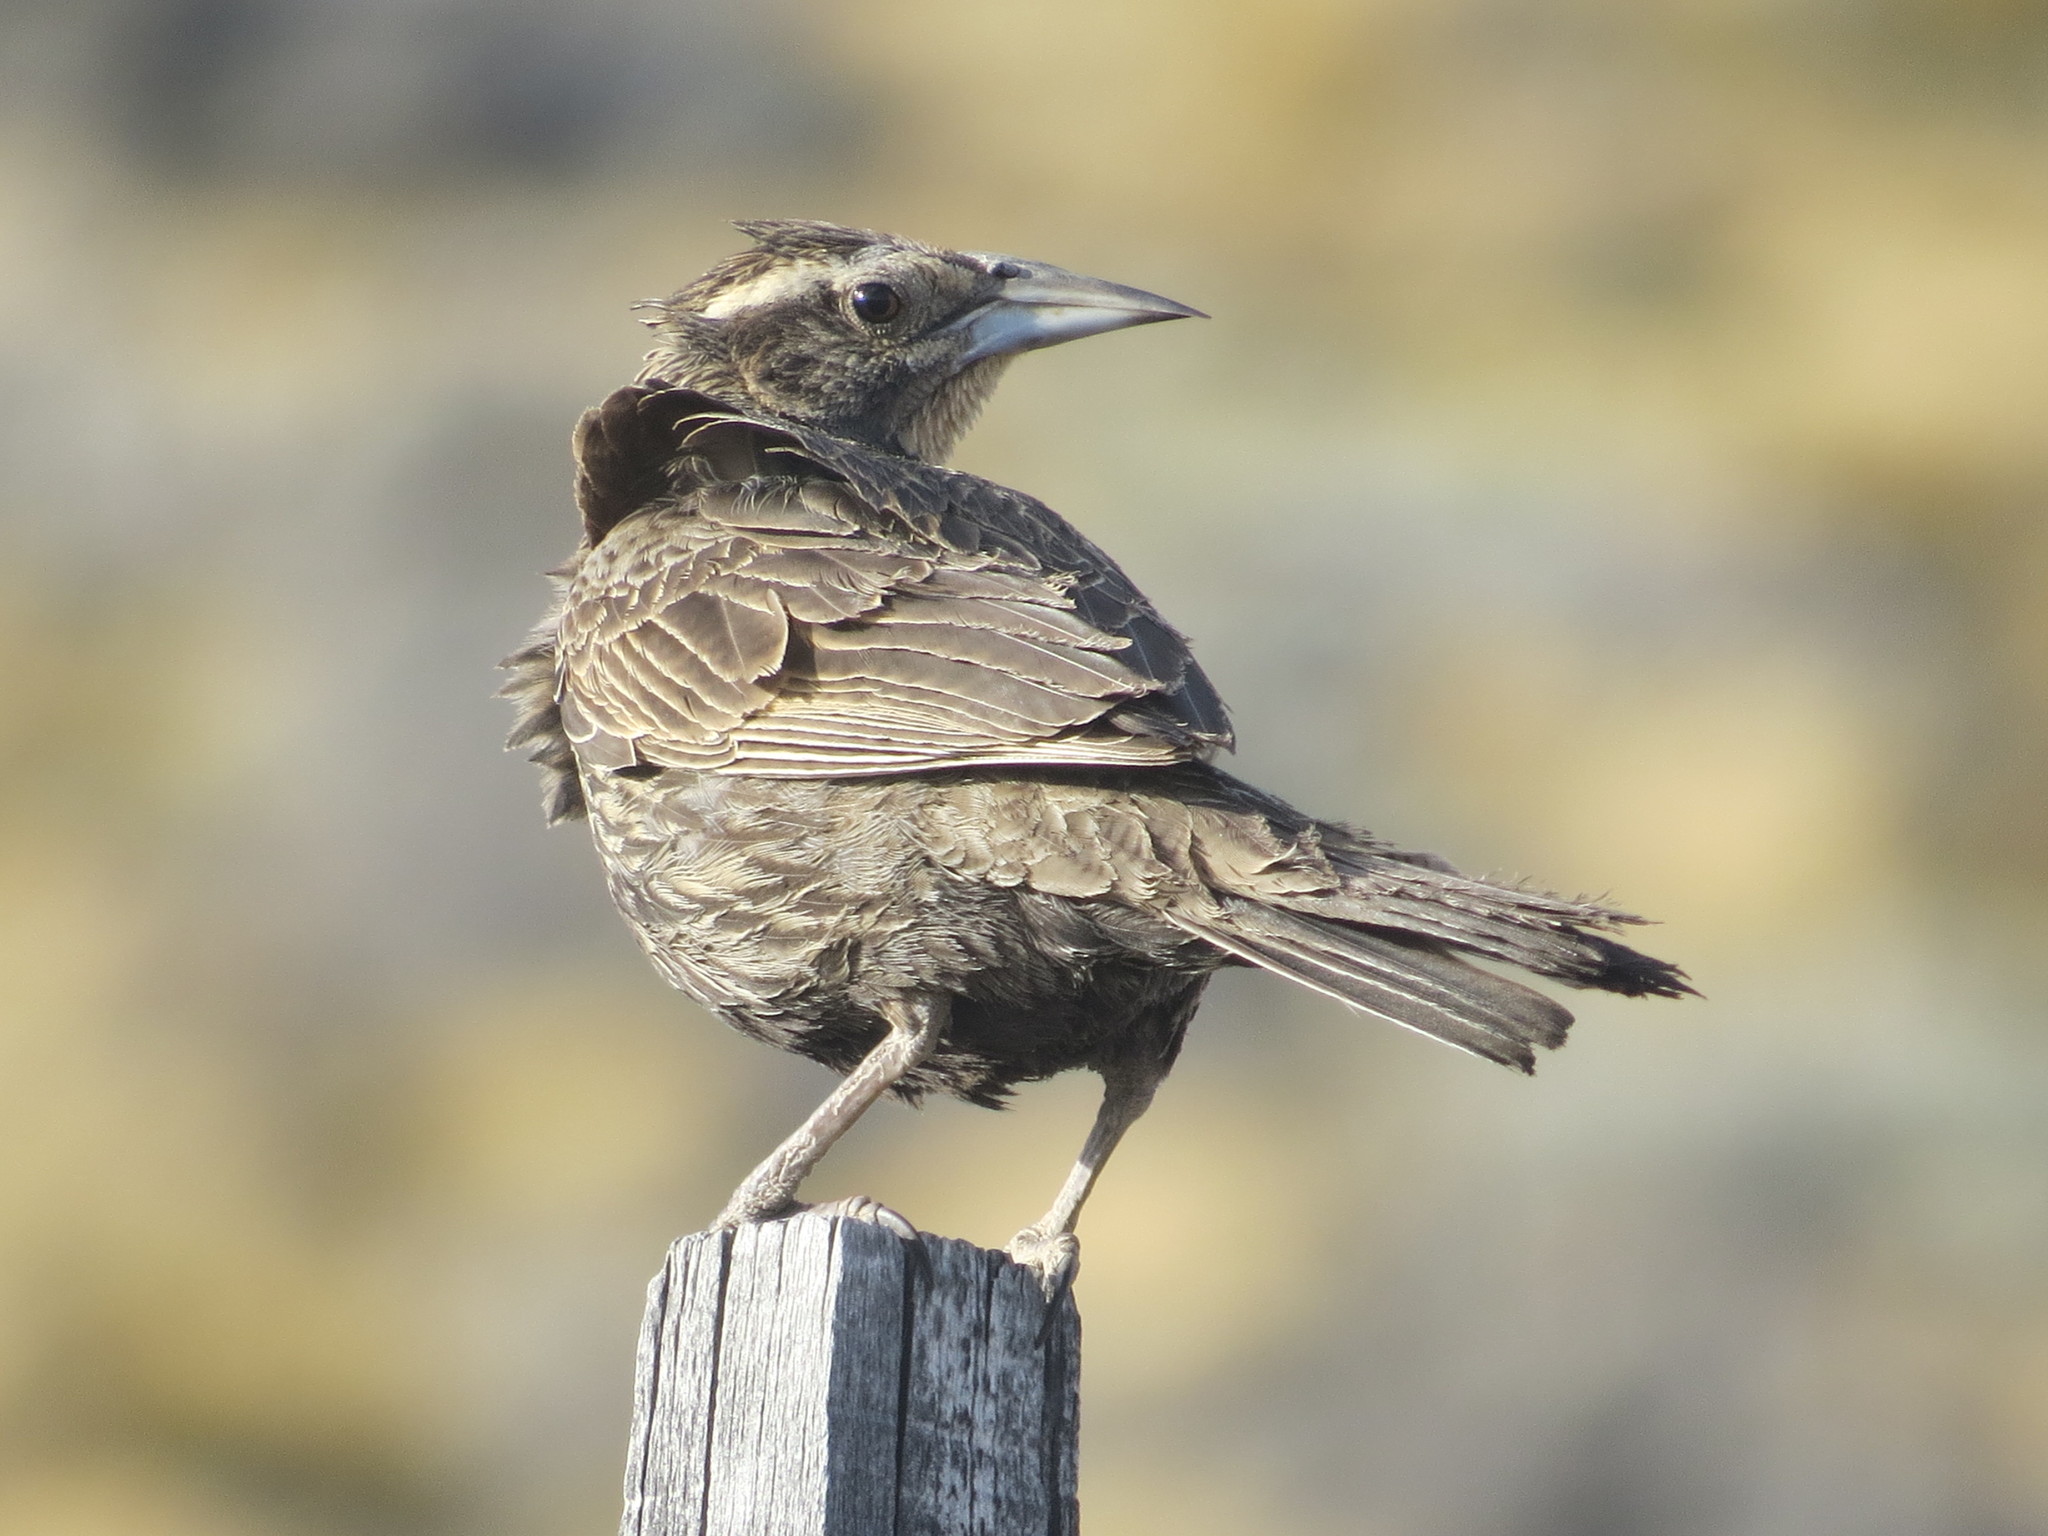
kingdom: Animalia
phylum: Chordata
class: Aves
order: Passeriformes
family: Icteridae
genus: Sturnella
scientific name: Sturnella loyca
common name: Long-tailed meadowlark
